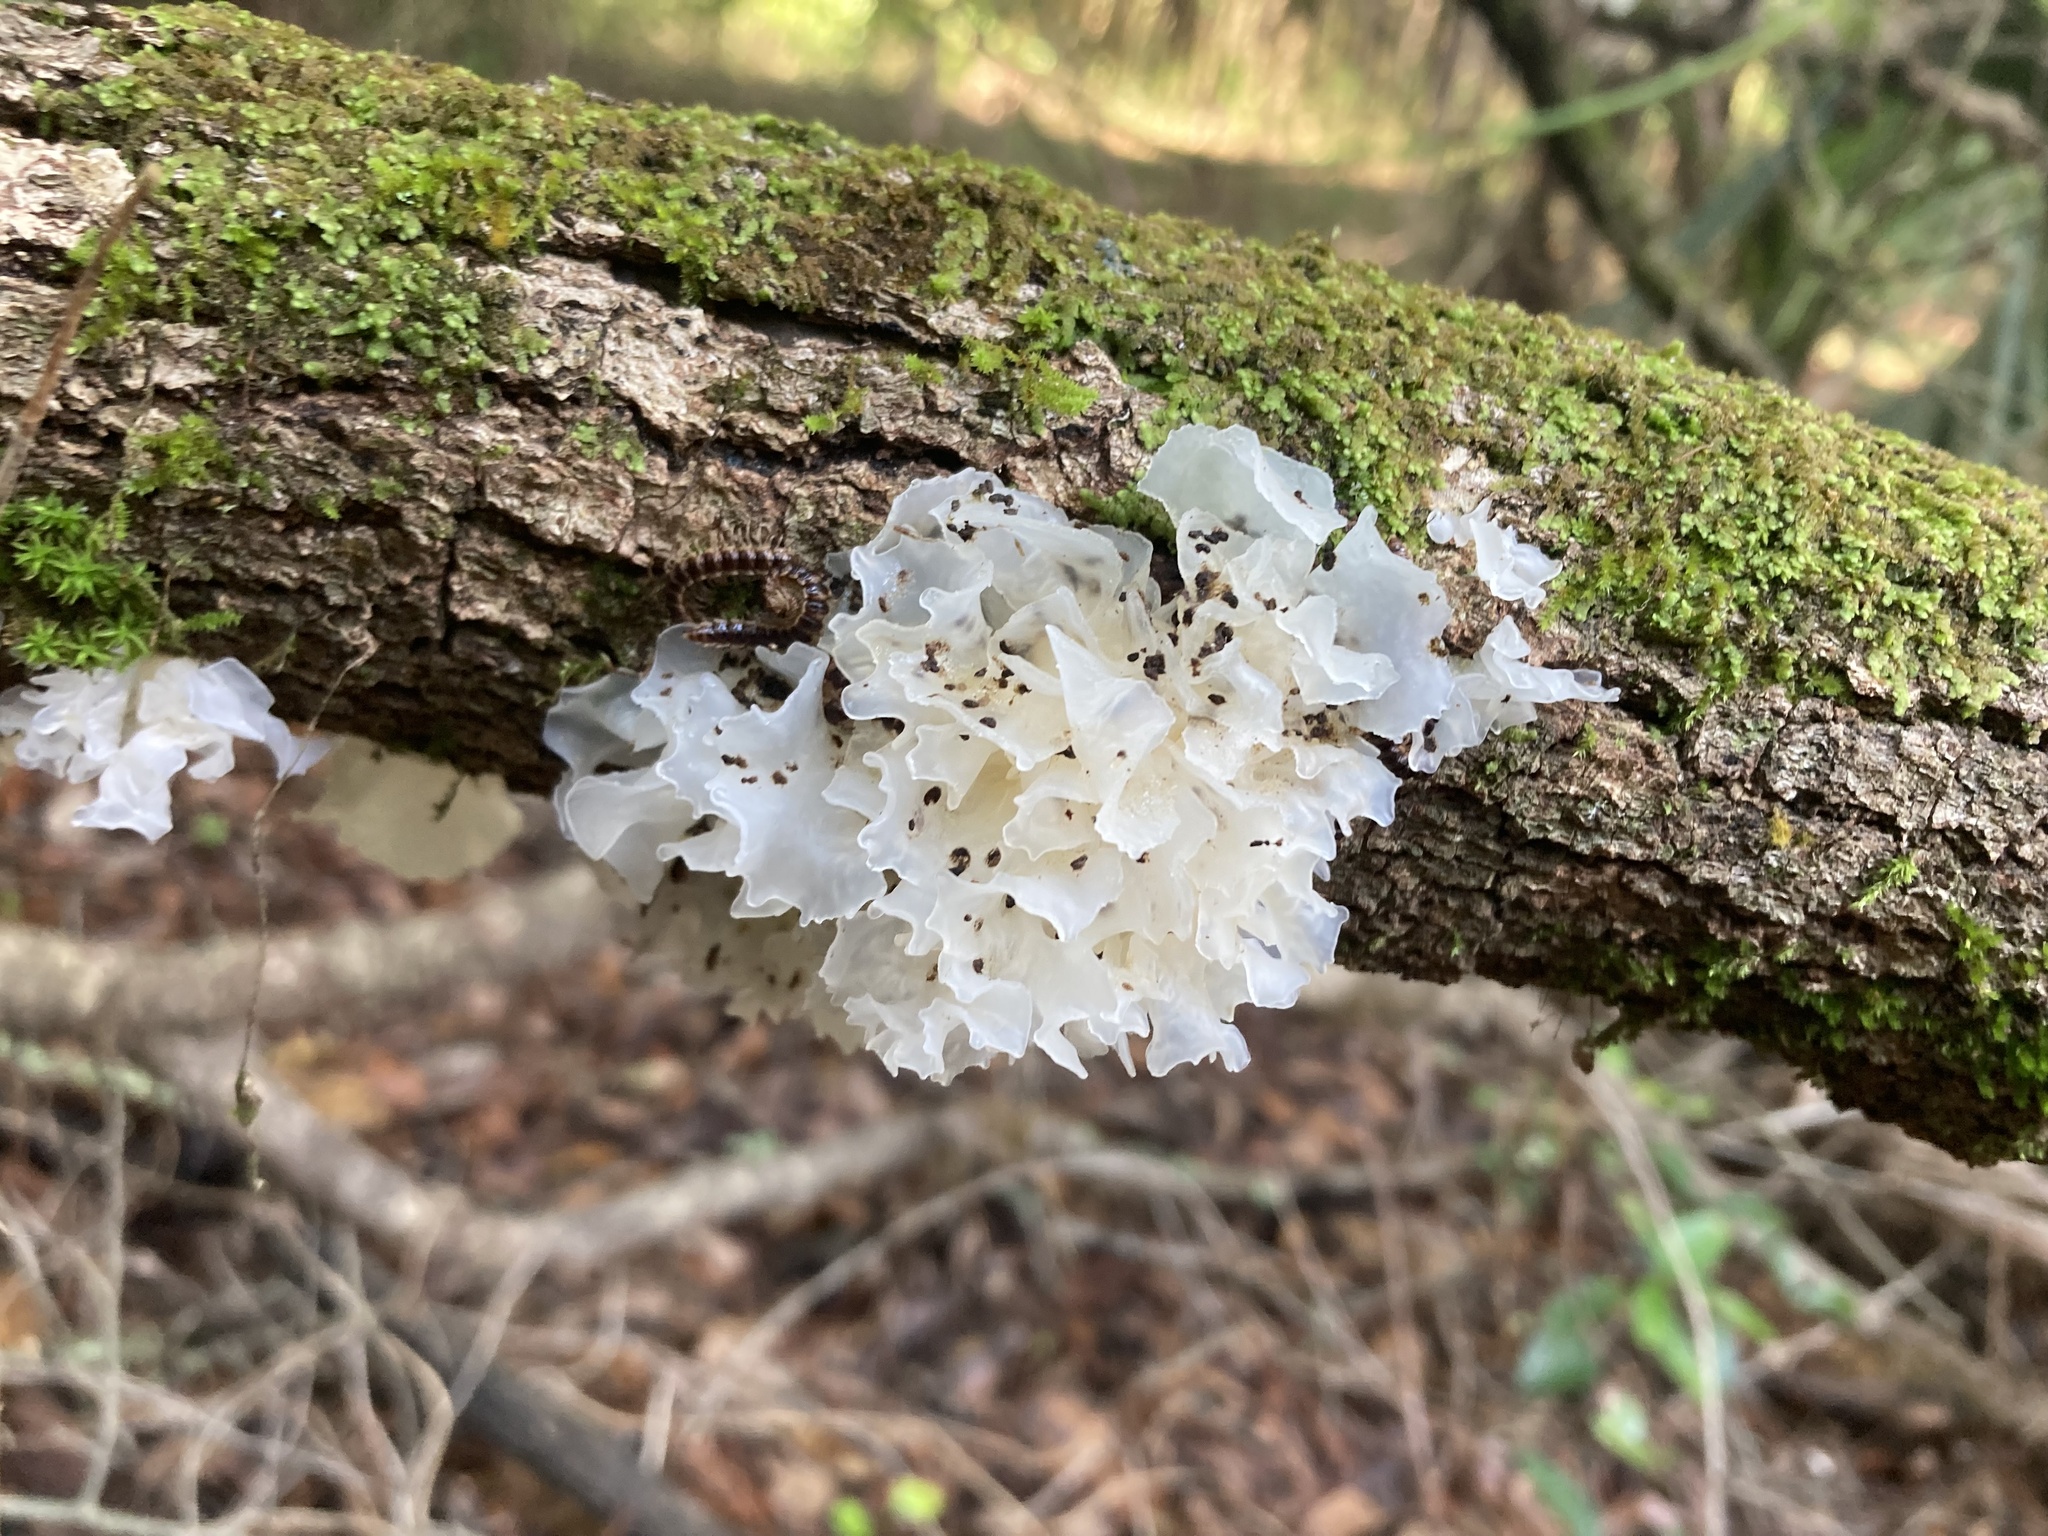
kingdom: Fungi
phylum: Basidiomycota
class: Tremellomycetes
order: Tremellales
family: Tremellaceae
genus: Tremella
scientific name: Tremella fuciformis
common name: Snow fungus
